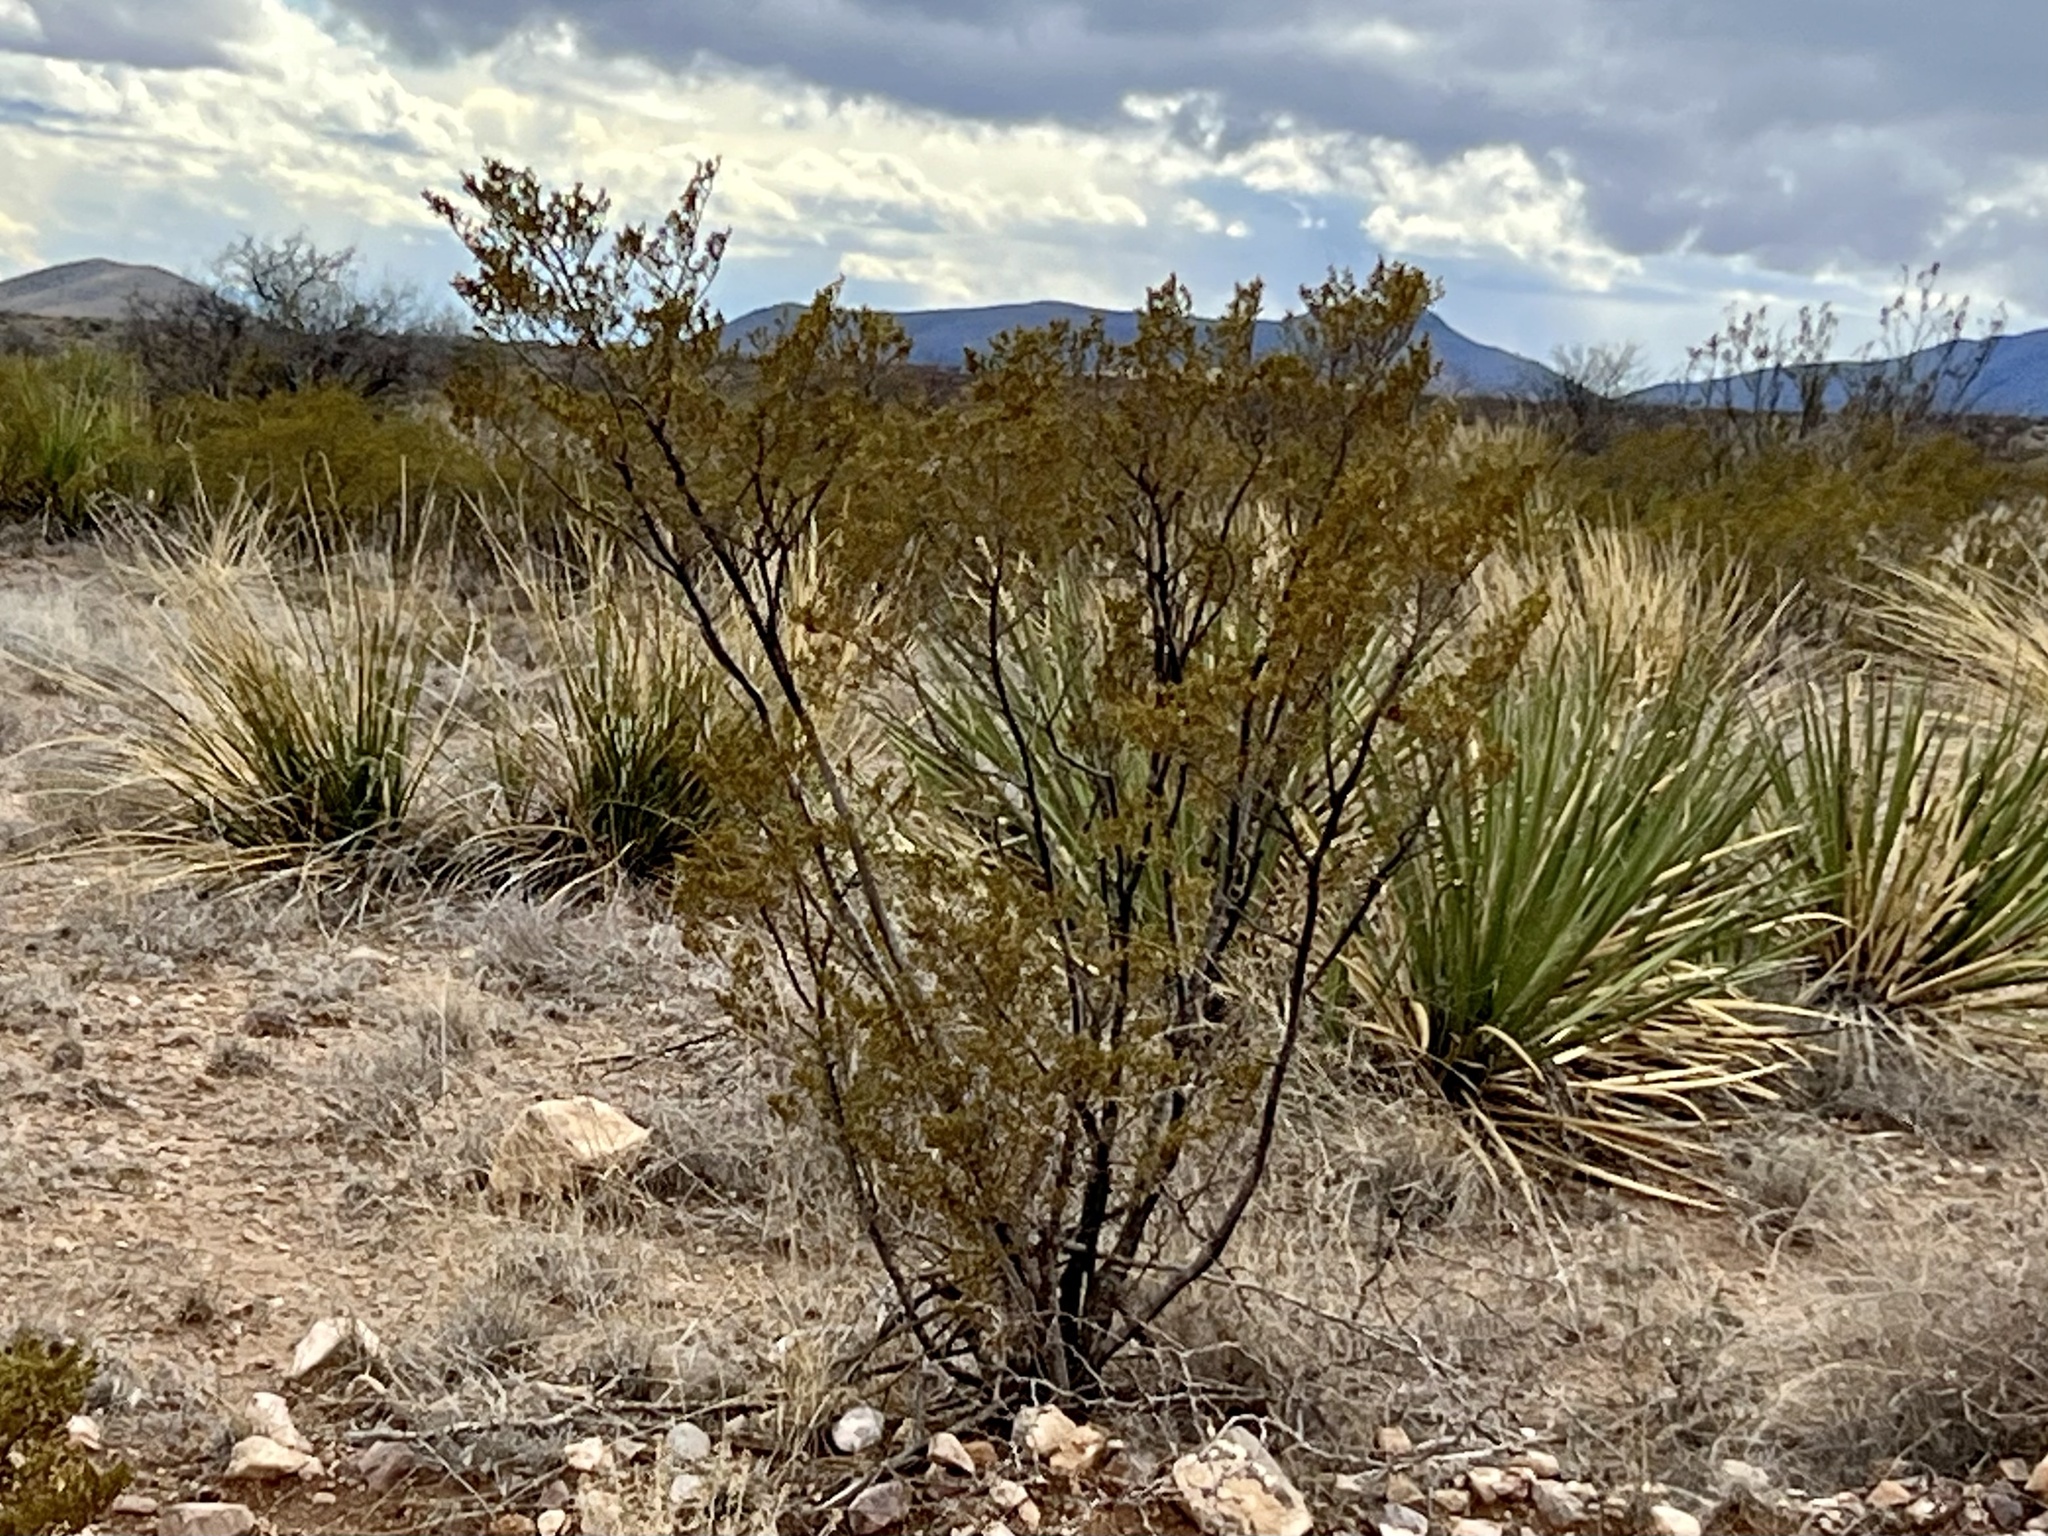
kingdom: Plantae
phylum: Tracheophyta
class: Magnoliopsida
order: Zygophyllales
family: Zygophyllaceae
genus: Larrea
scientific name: Larrea tridentata
